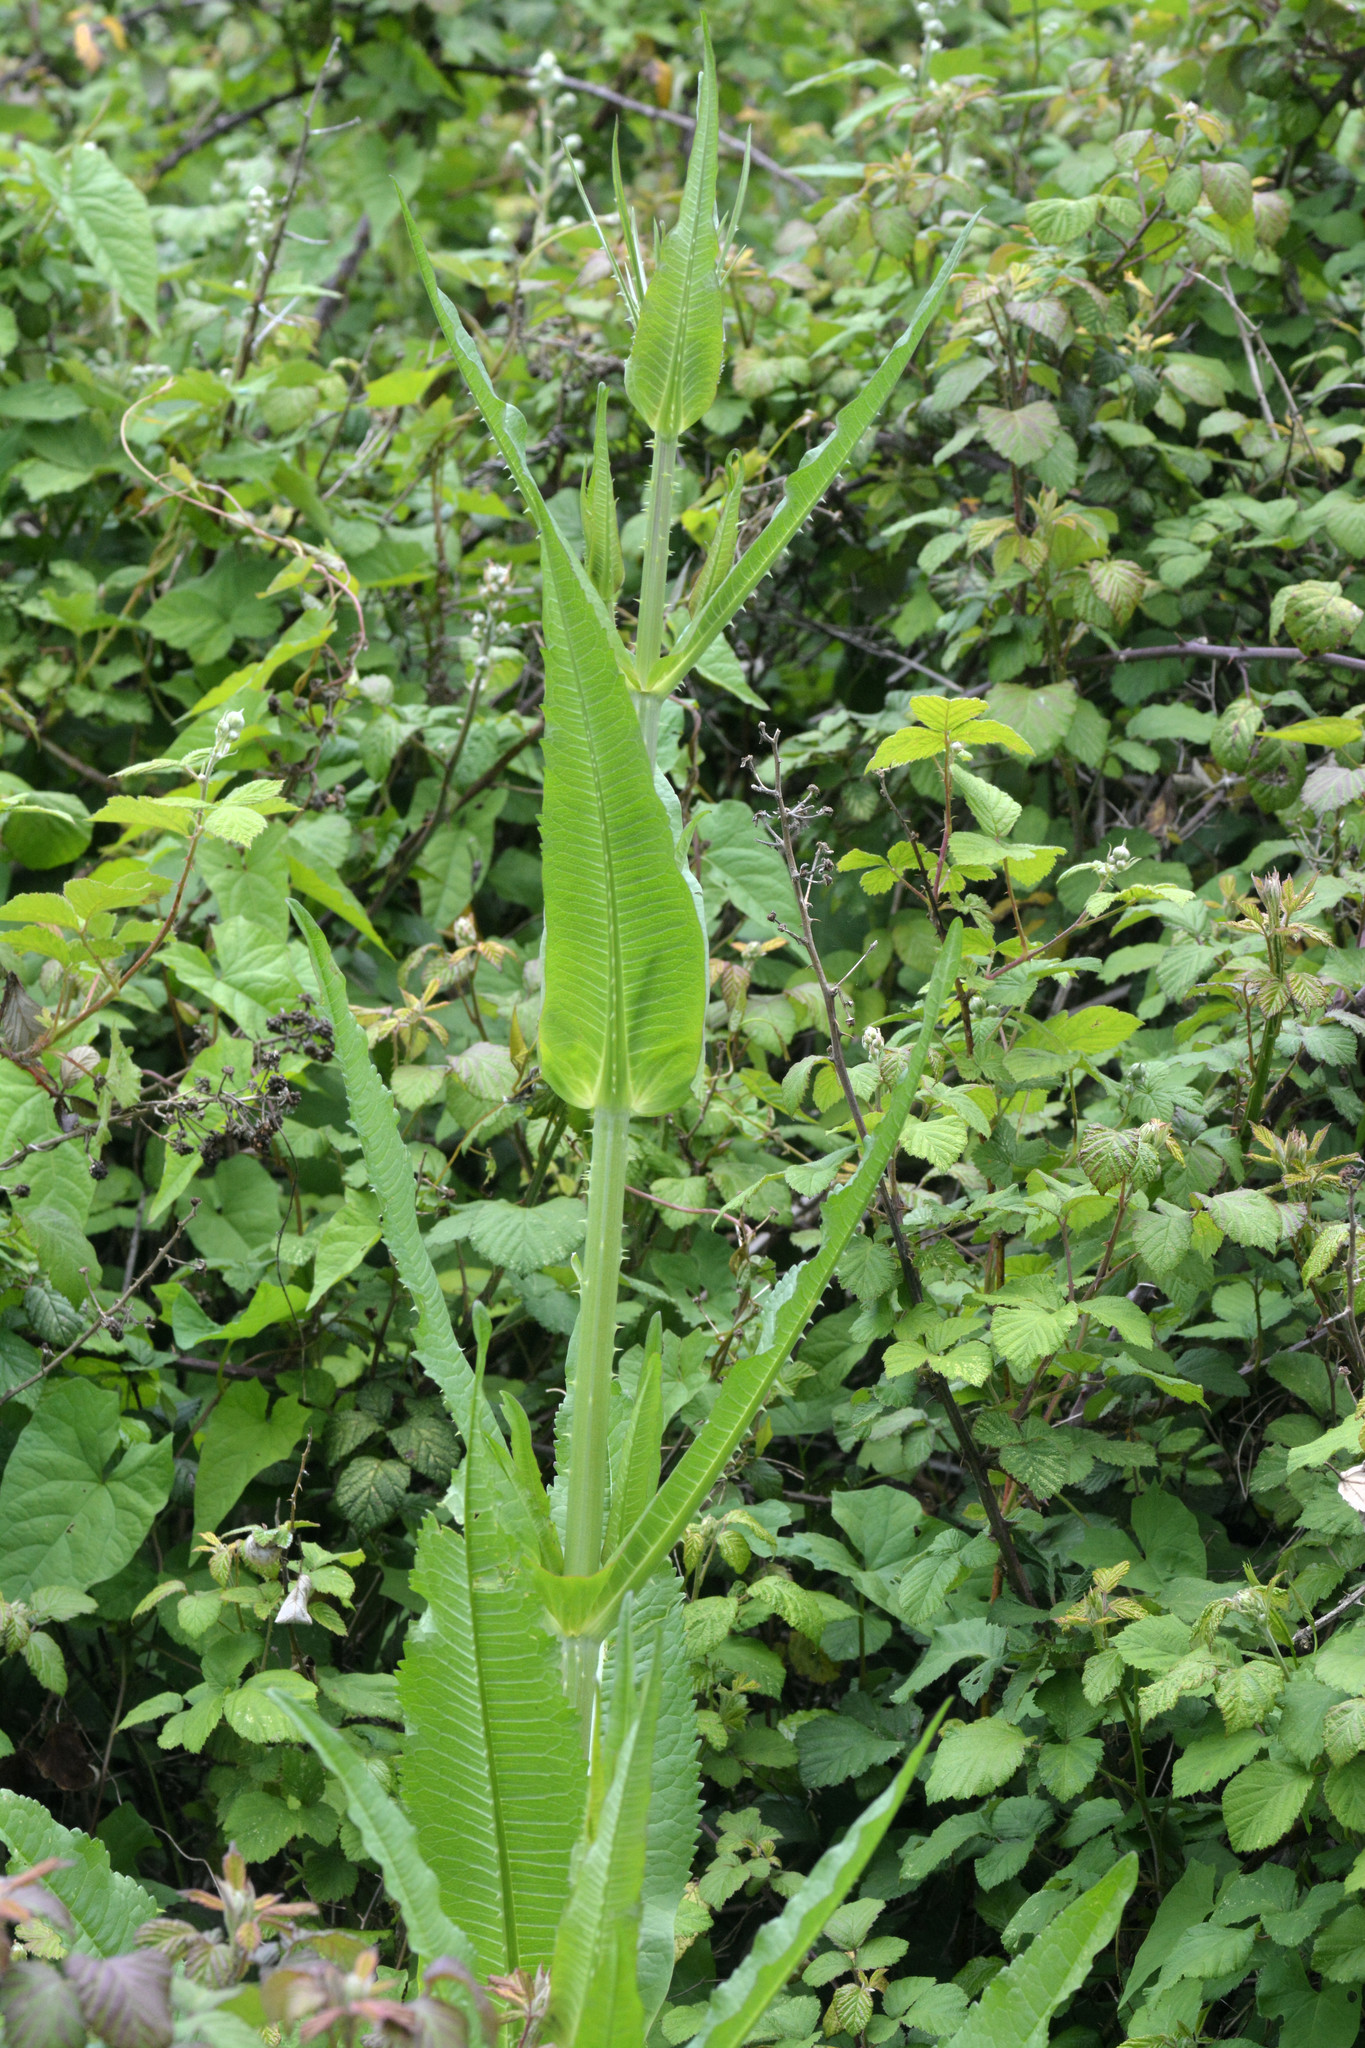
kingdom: Plantae
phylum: Tracheophyta
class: Magnoliopsida
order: Dipsacales
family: Caprifoliaceae
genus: Dipsacus
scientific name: Dipsacus fullonum
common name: Teasel
